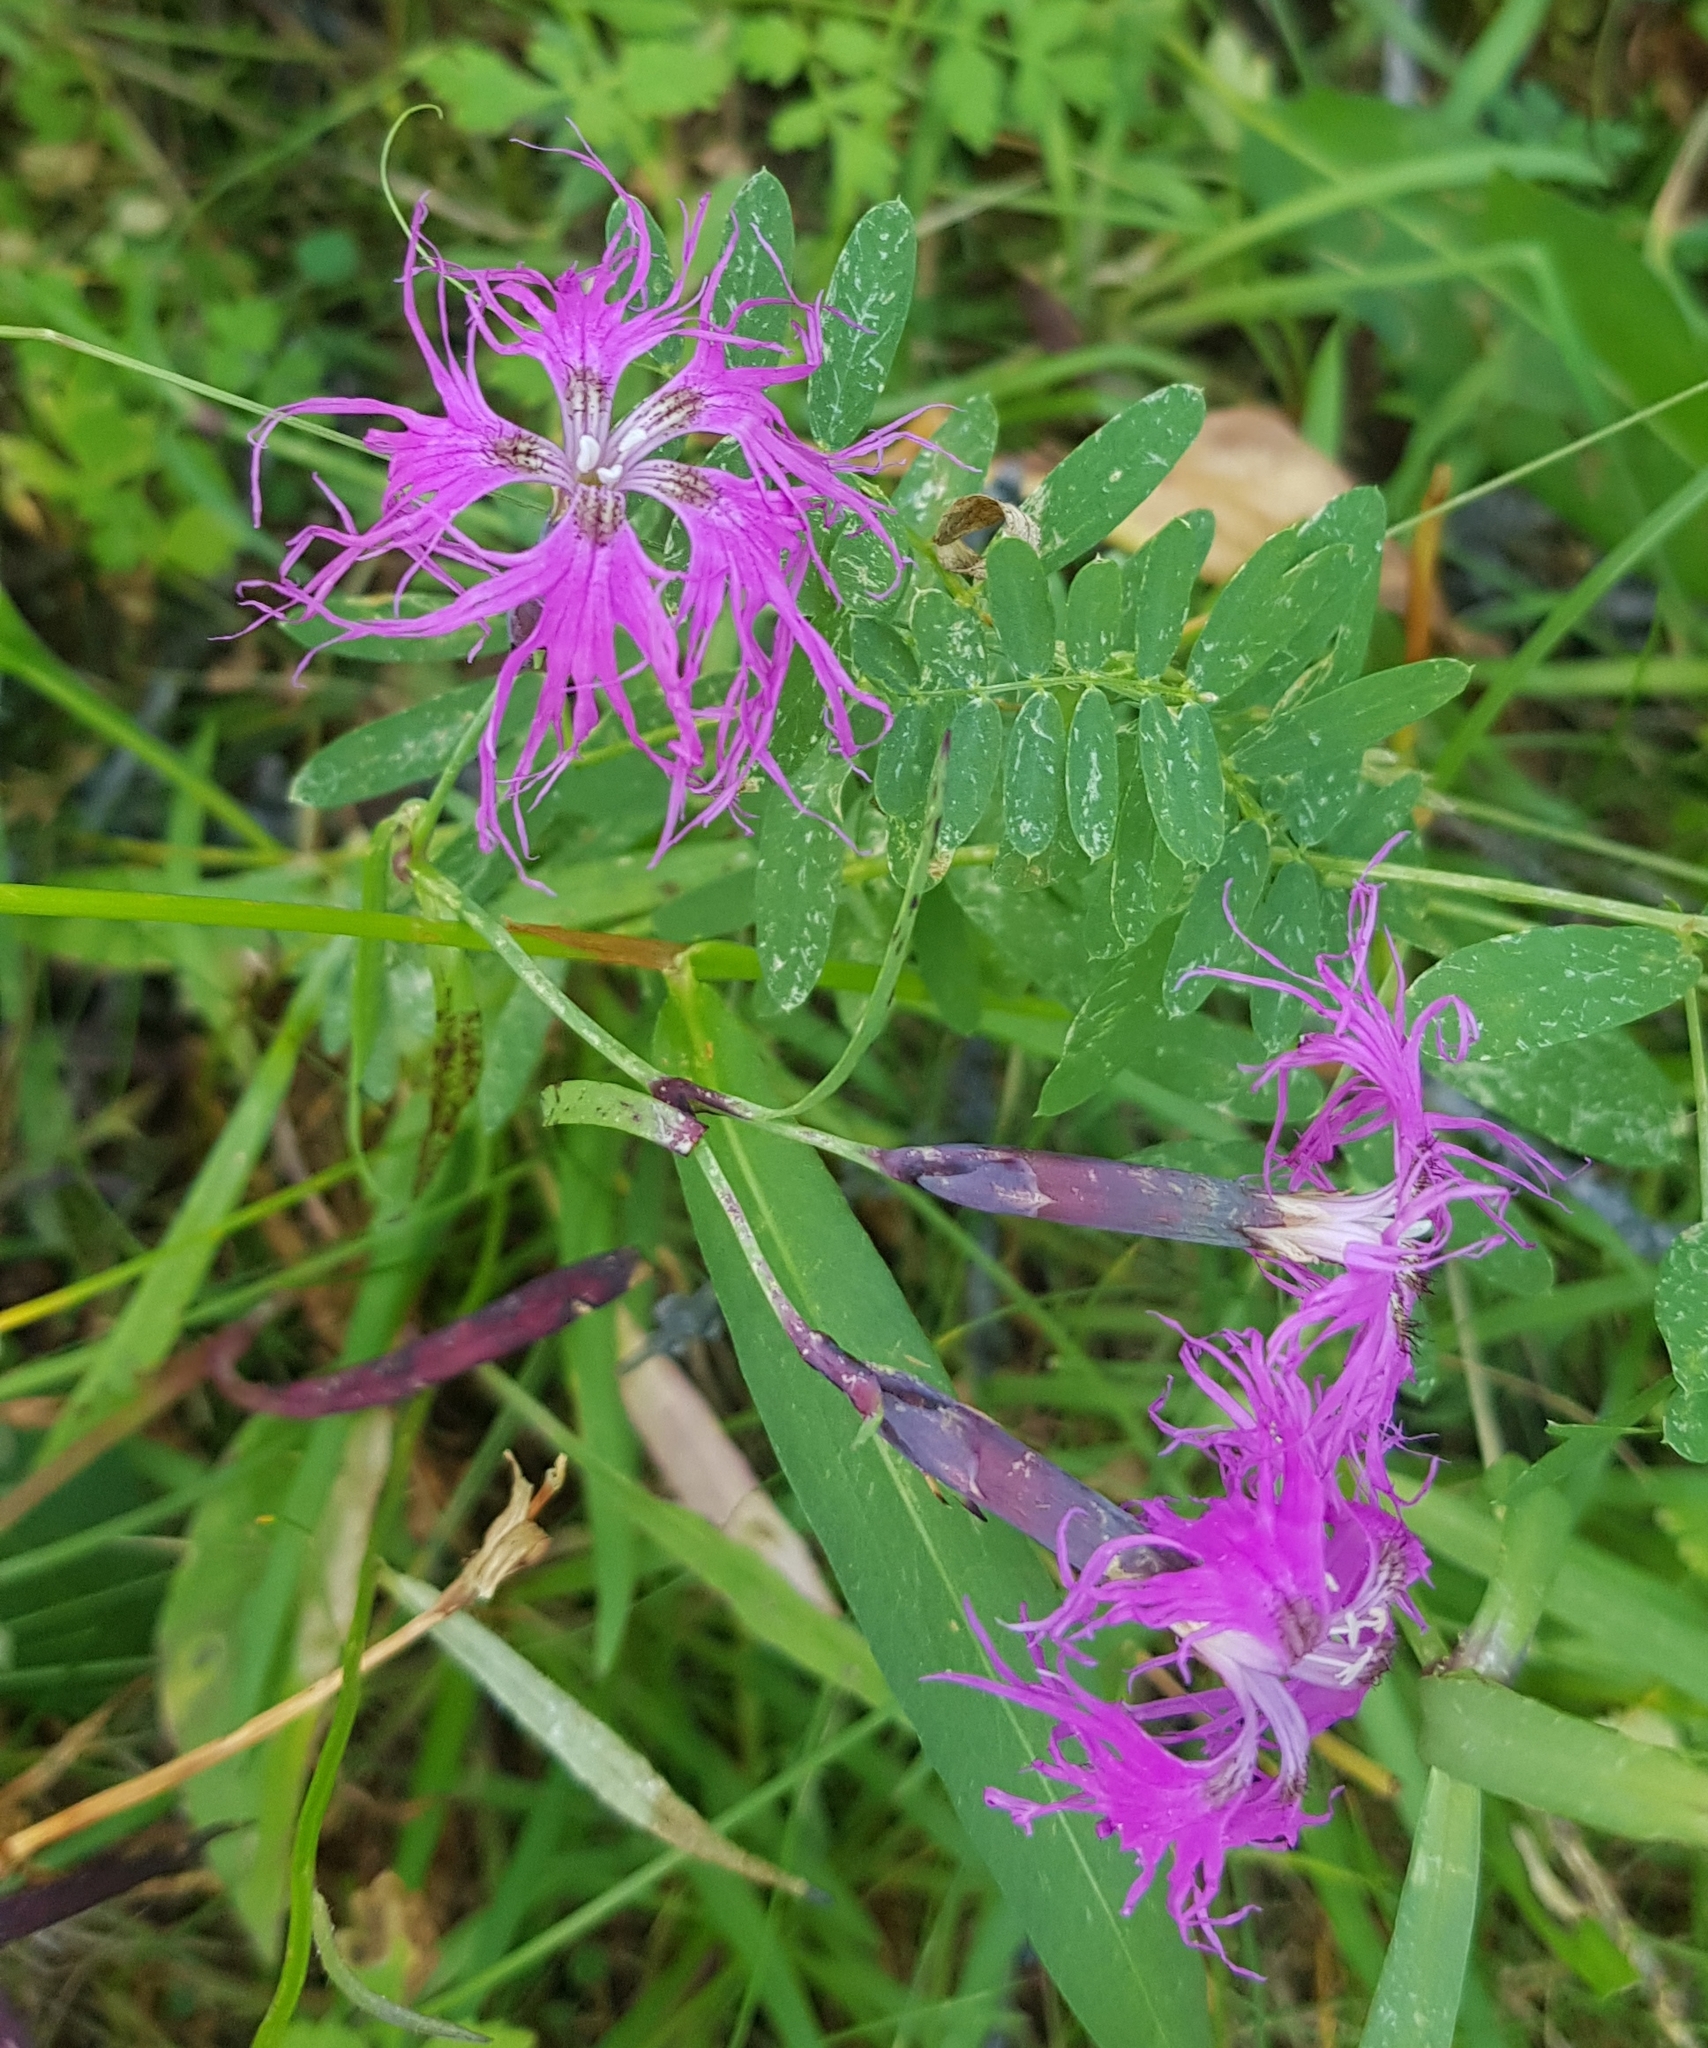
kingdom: Plantae
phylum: Tracheophyta
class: Magnoliopsida
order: Caryophyllales
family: Caryophyllaceae
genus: Dianthus
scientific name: Dianthus superbus
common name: Fringed pink
